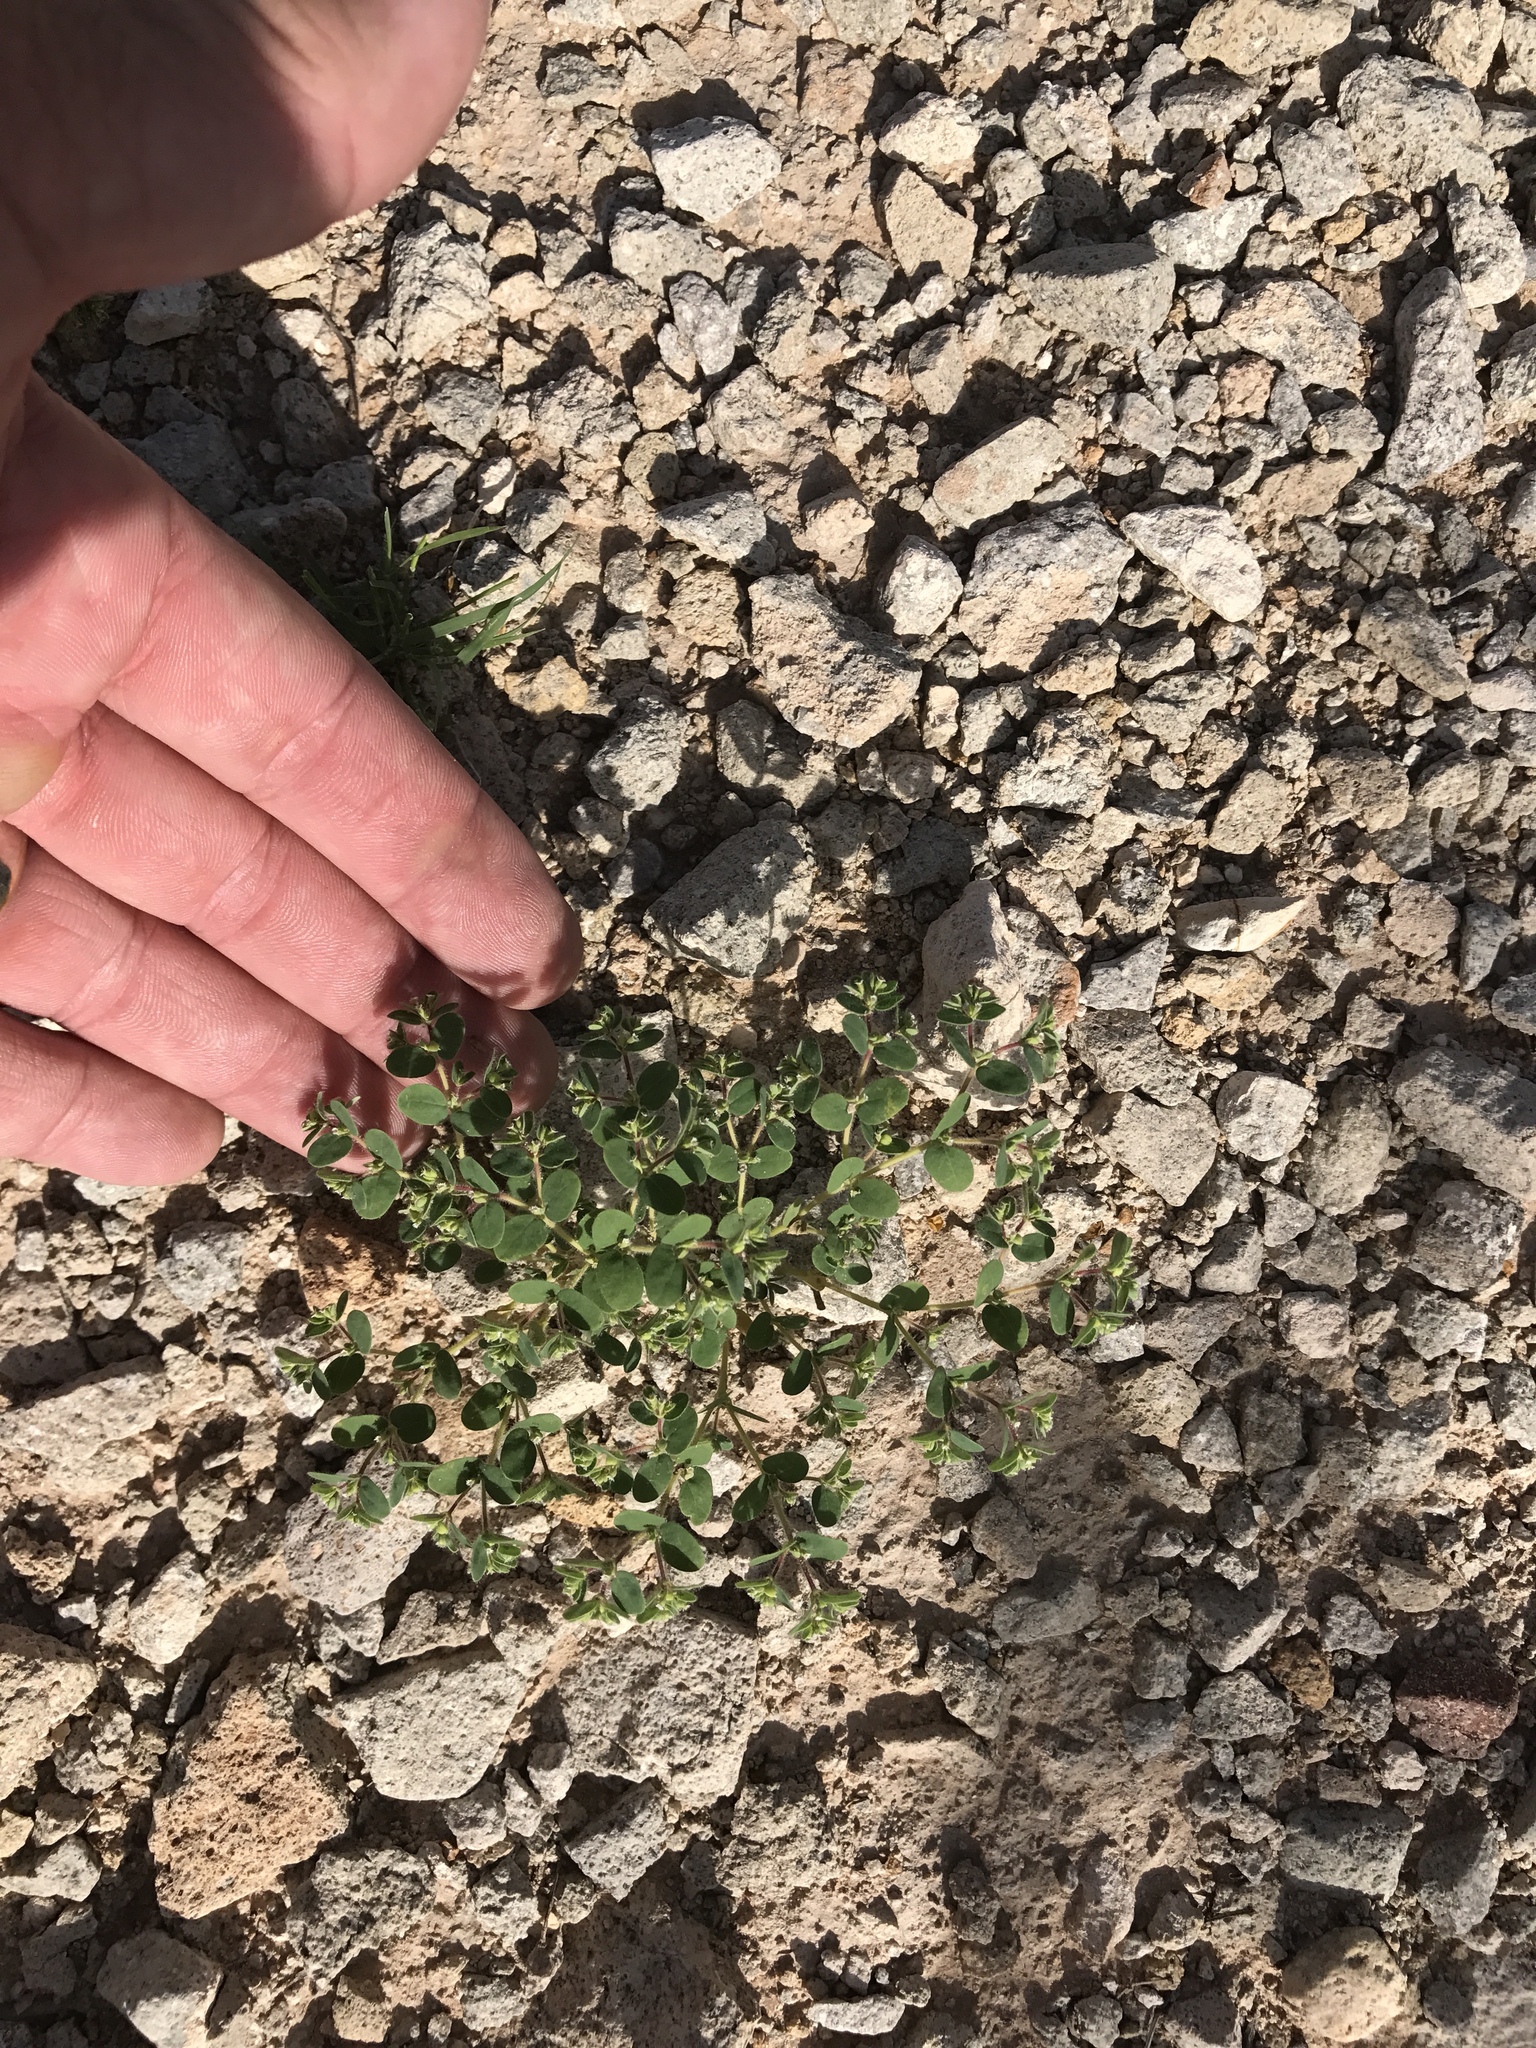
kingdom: Plantae
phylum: Tracheophyta
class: Magnoliopsida
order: Malpighiales
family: Euphorbiaceae
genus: Euphorbia
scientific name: Euphorbia setiloba
